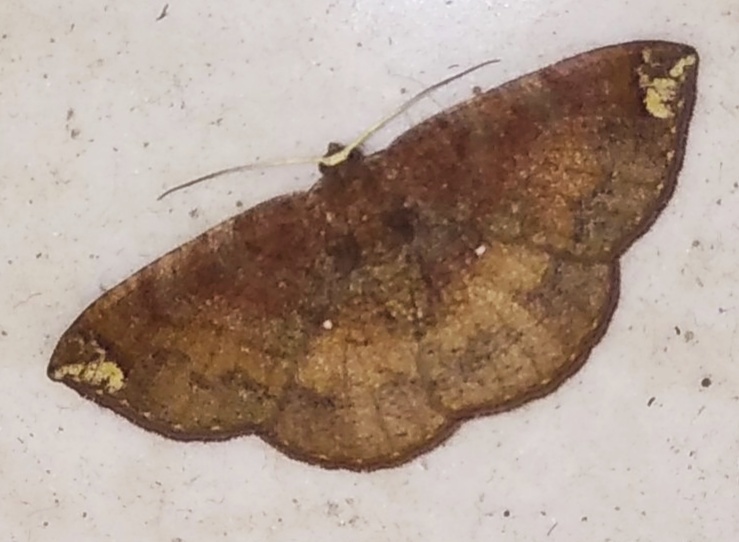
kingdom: Animalia
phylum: Arthropoda
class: Insecta
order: Lepidoptera
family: Geometridae
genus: Astygisa
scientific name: Astygisa orbapicalis
